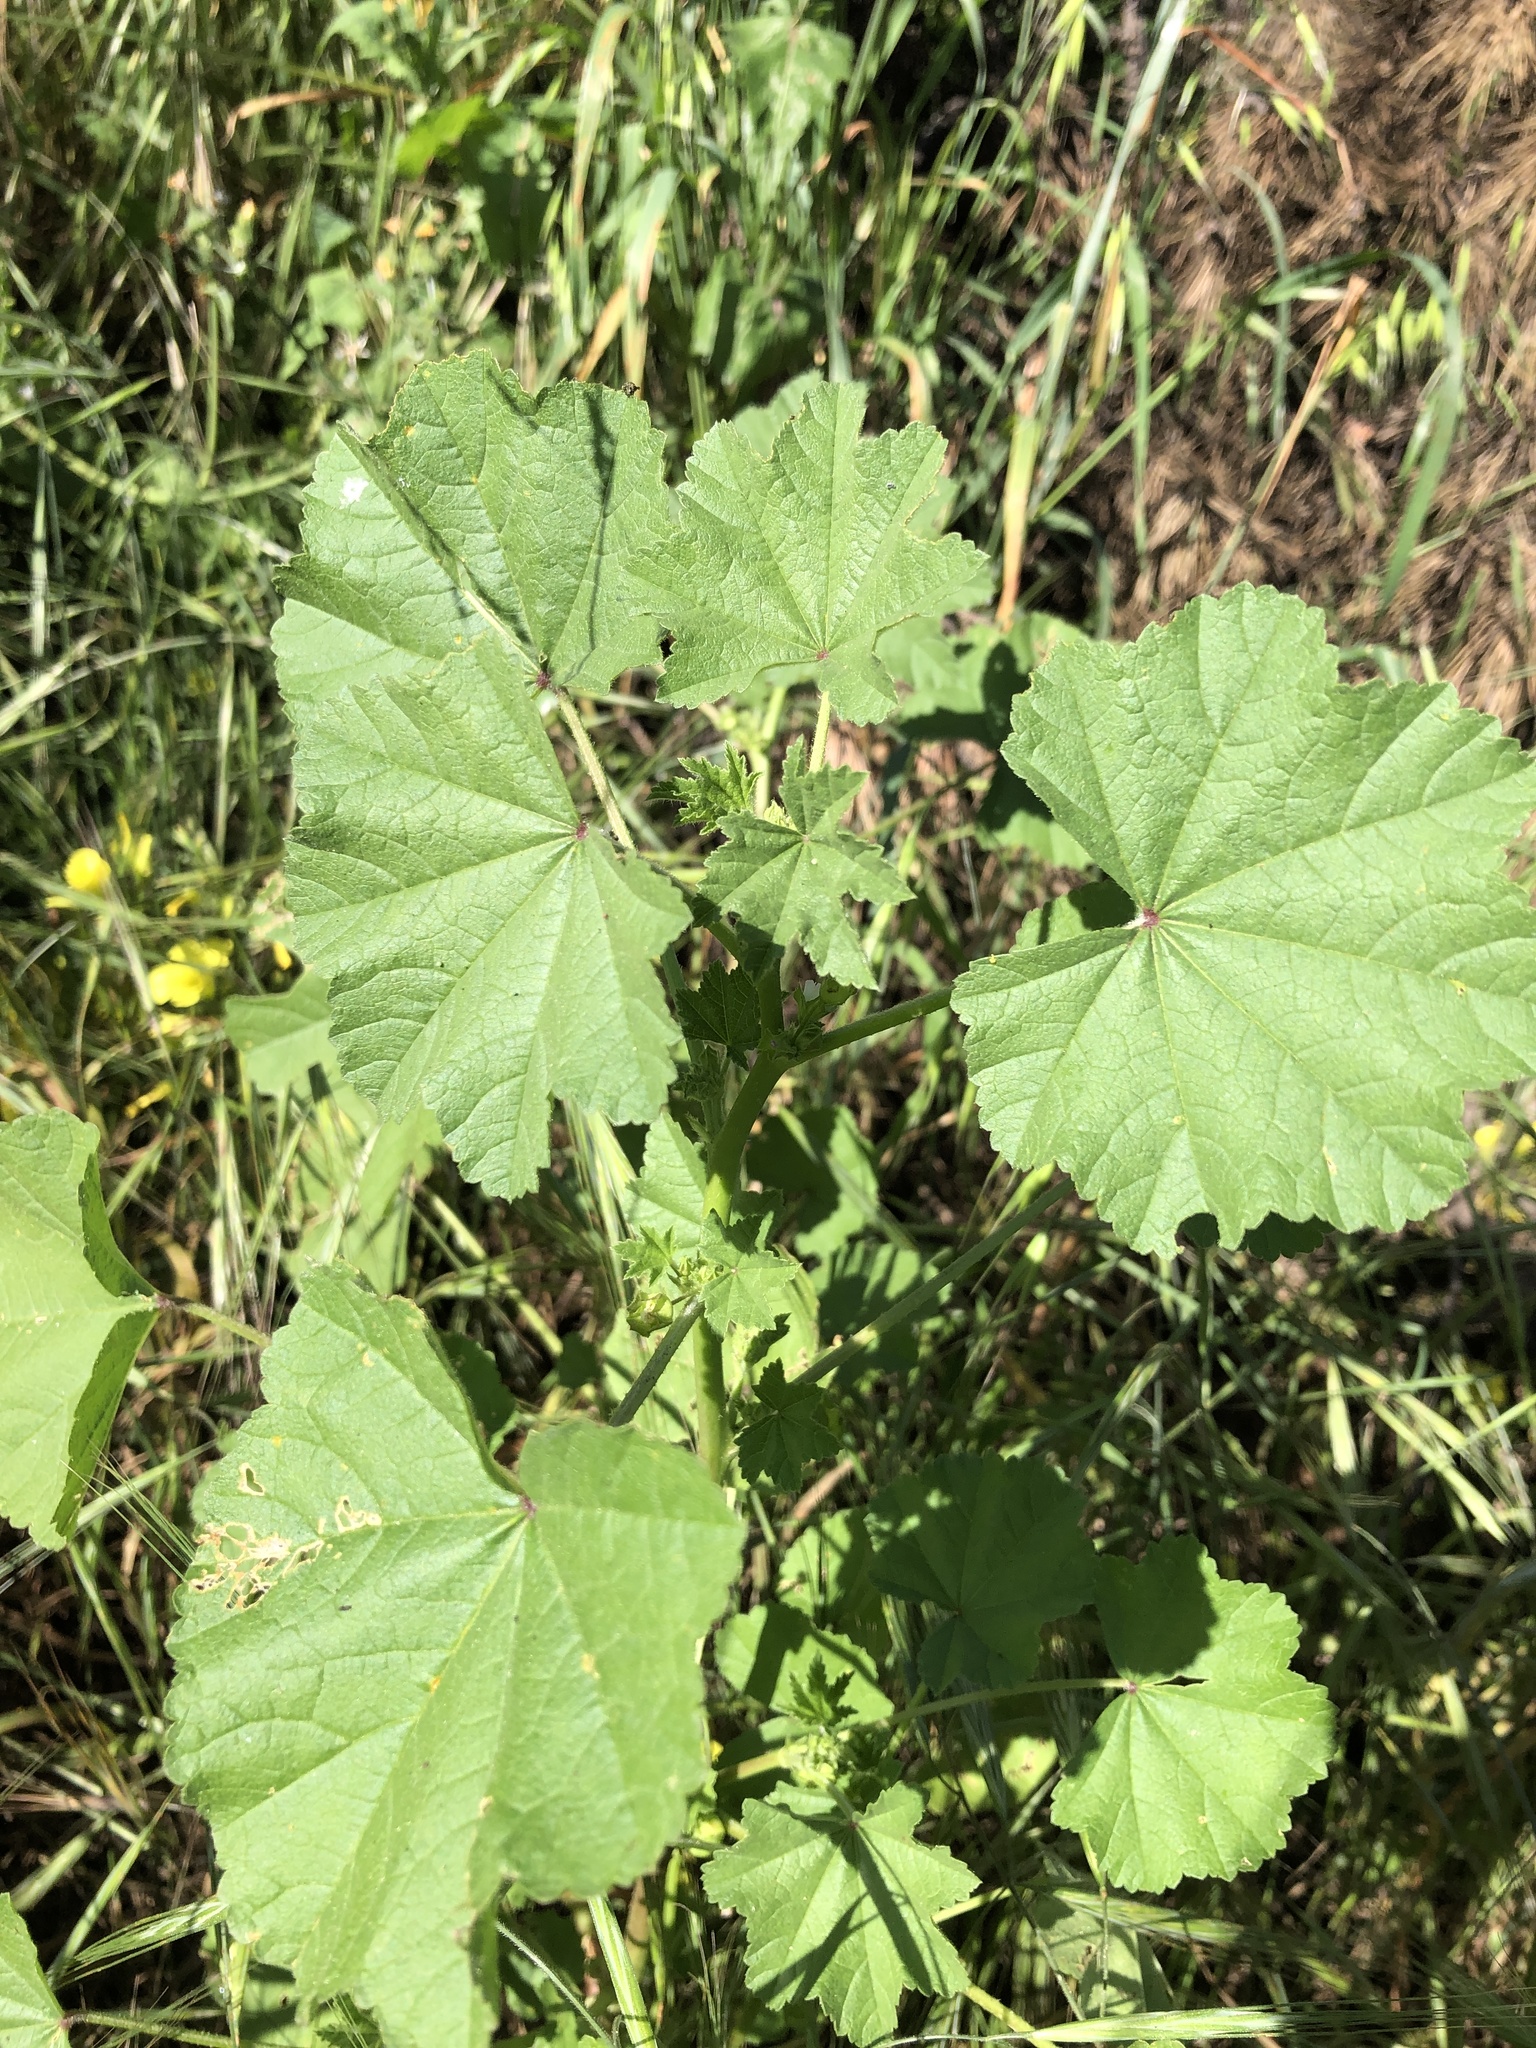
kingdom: Plantae
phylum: Tracheophyta
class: Magnoliopsida
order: Malvales
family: Malvaceae
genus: Malva
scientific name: Malva parviflora
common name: Least mallow
